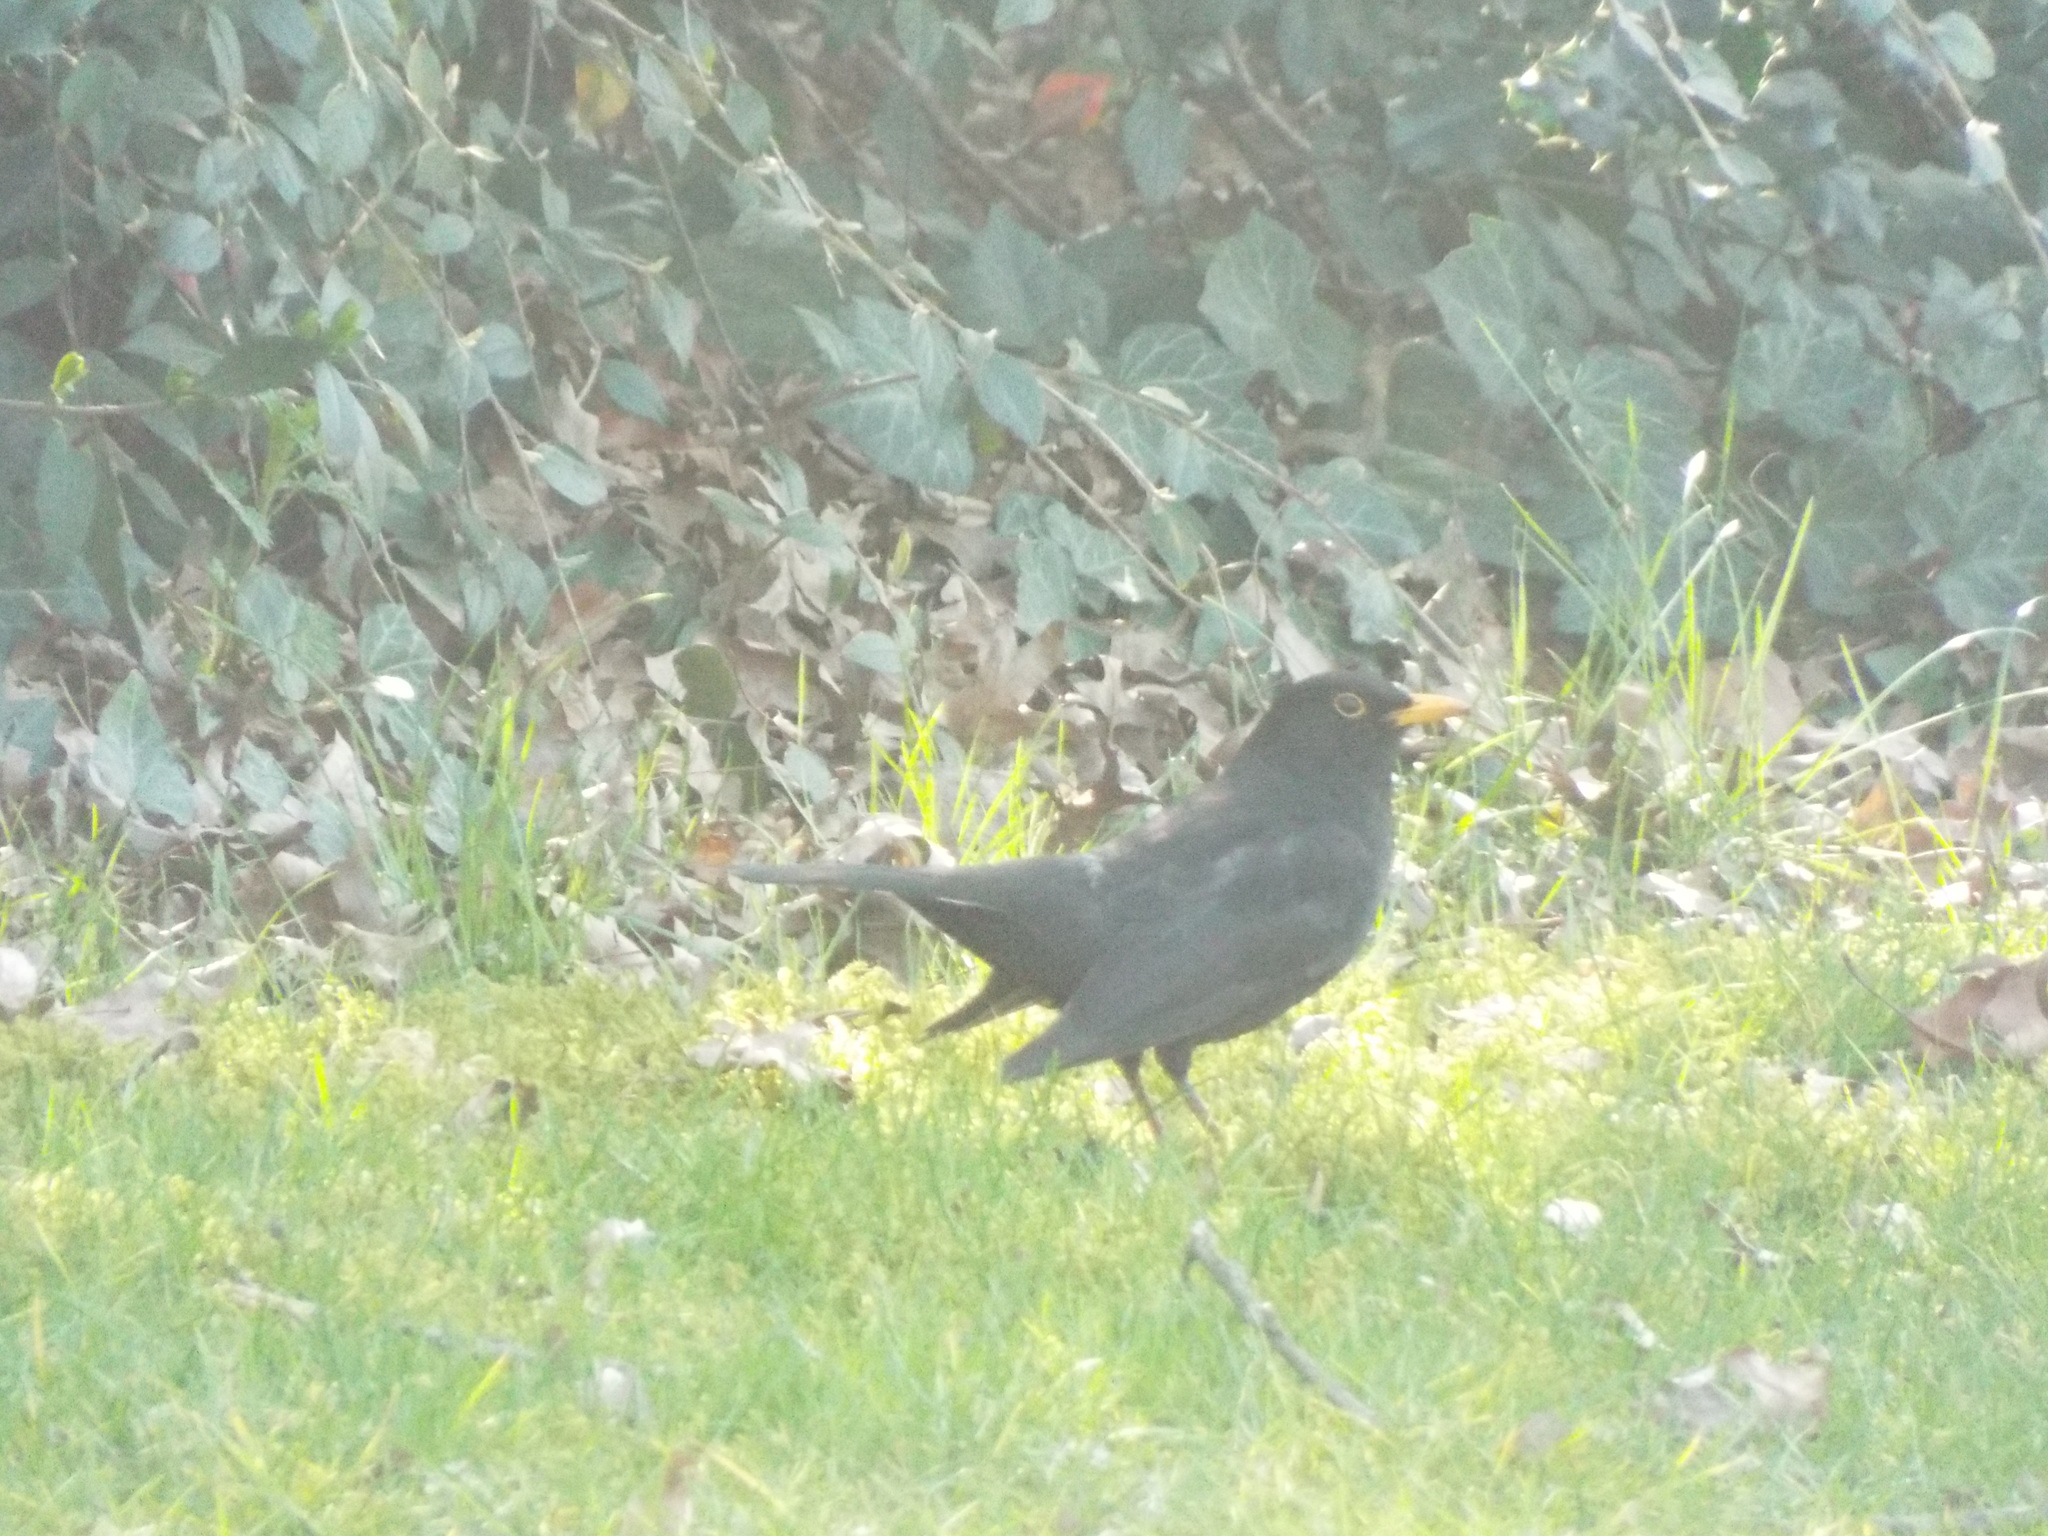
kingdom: Animalia
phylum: Chordata
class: Aves
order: Passeriformes
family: Turdidae
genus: Turdus
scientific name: Turdus merula
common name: Common blackbird
